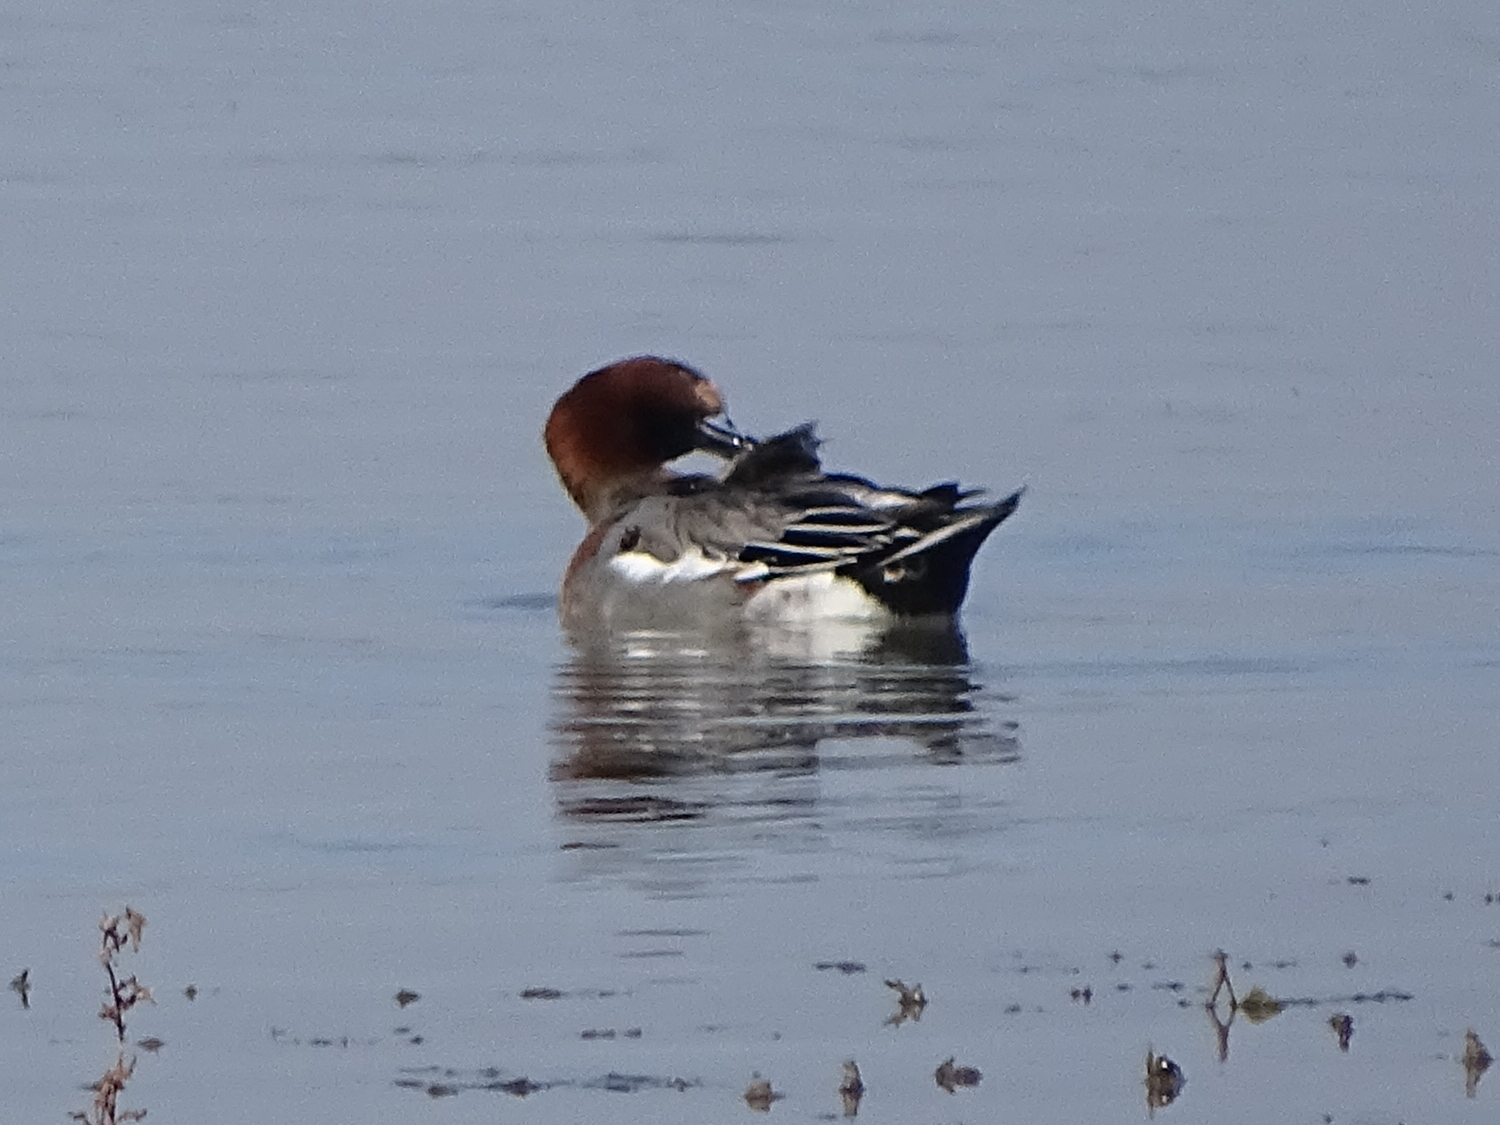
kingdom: Animalia
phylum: Chordata
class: Aves
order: Anseriformes
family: Anatidae
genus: Mareca
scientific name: Mareca penelope
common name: Eurasian wigeon
